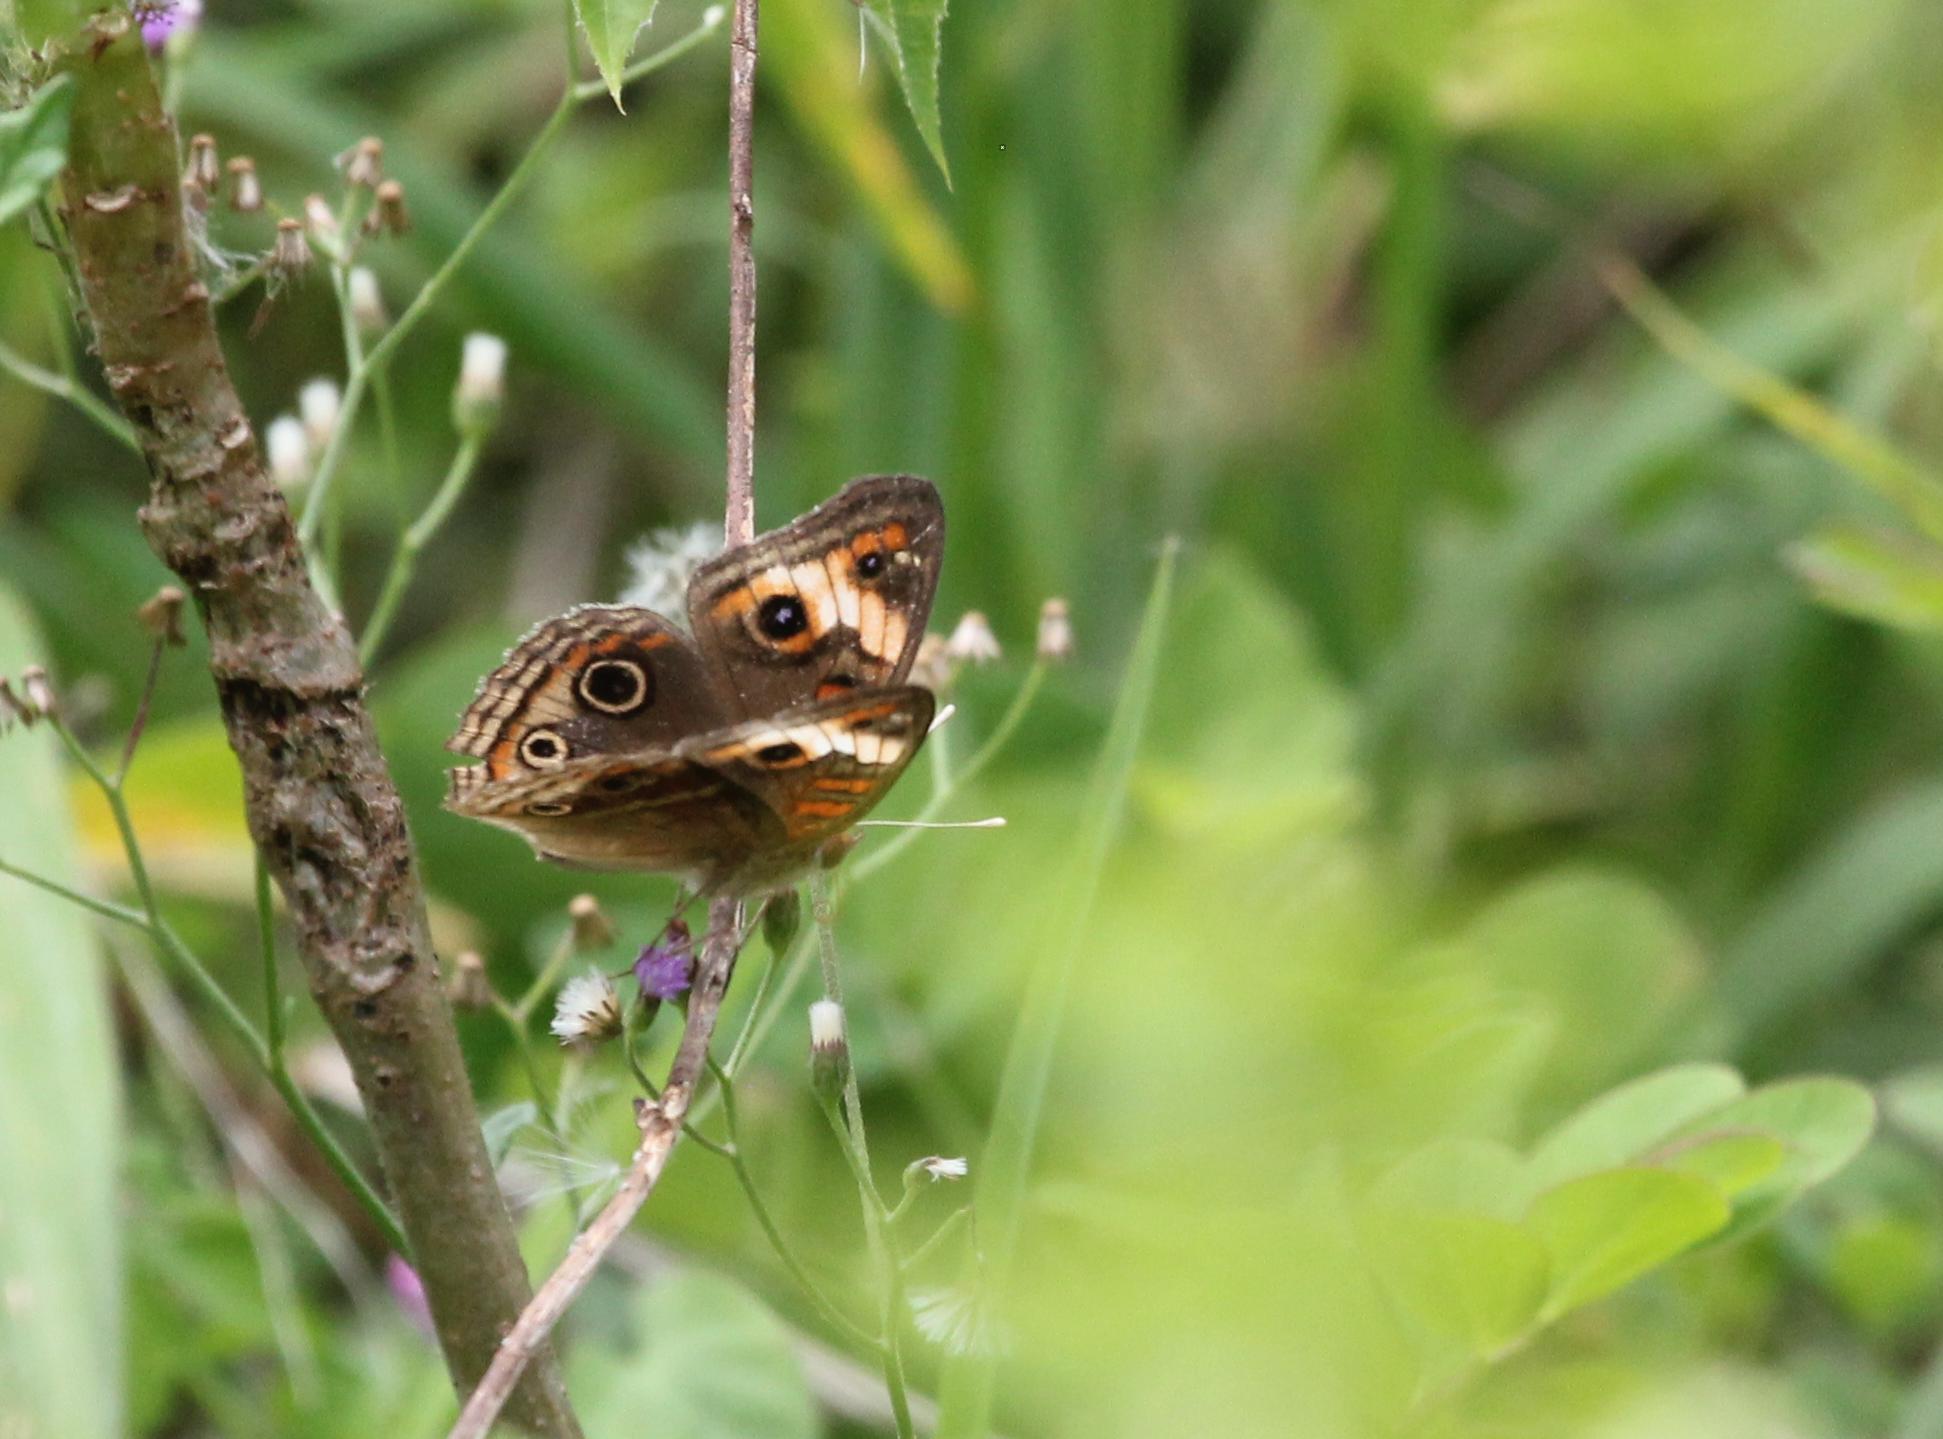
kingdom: Animalia
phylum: Arthropoda
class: Insecta
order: Lepidoptera
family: Nymphalidae
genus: Junonia
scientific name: Junonia lavinia
